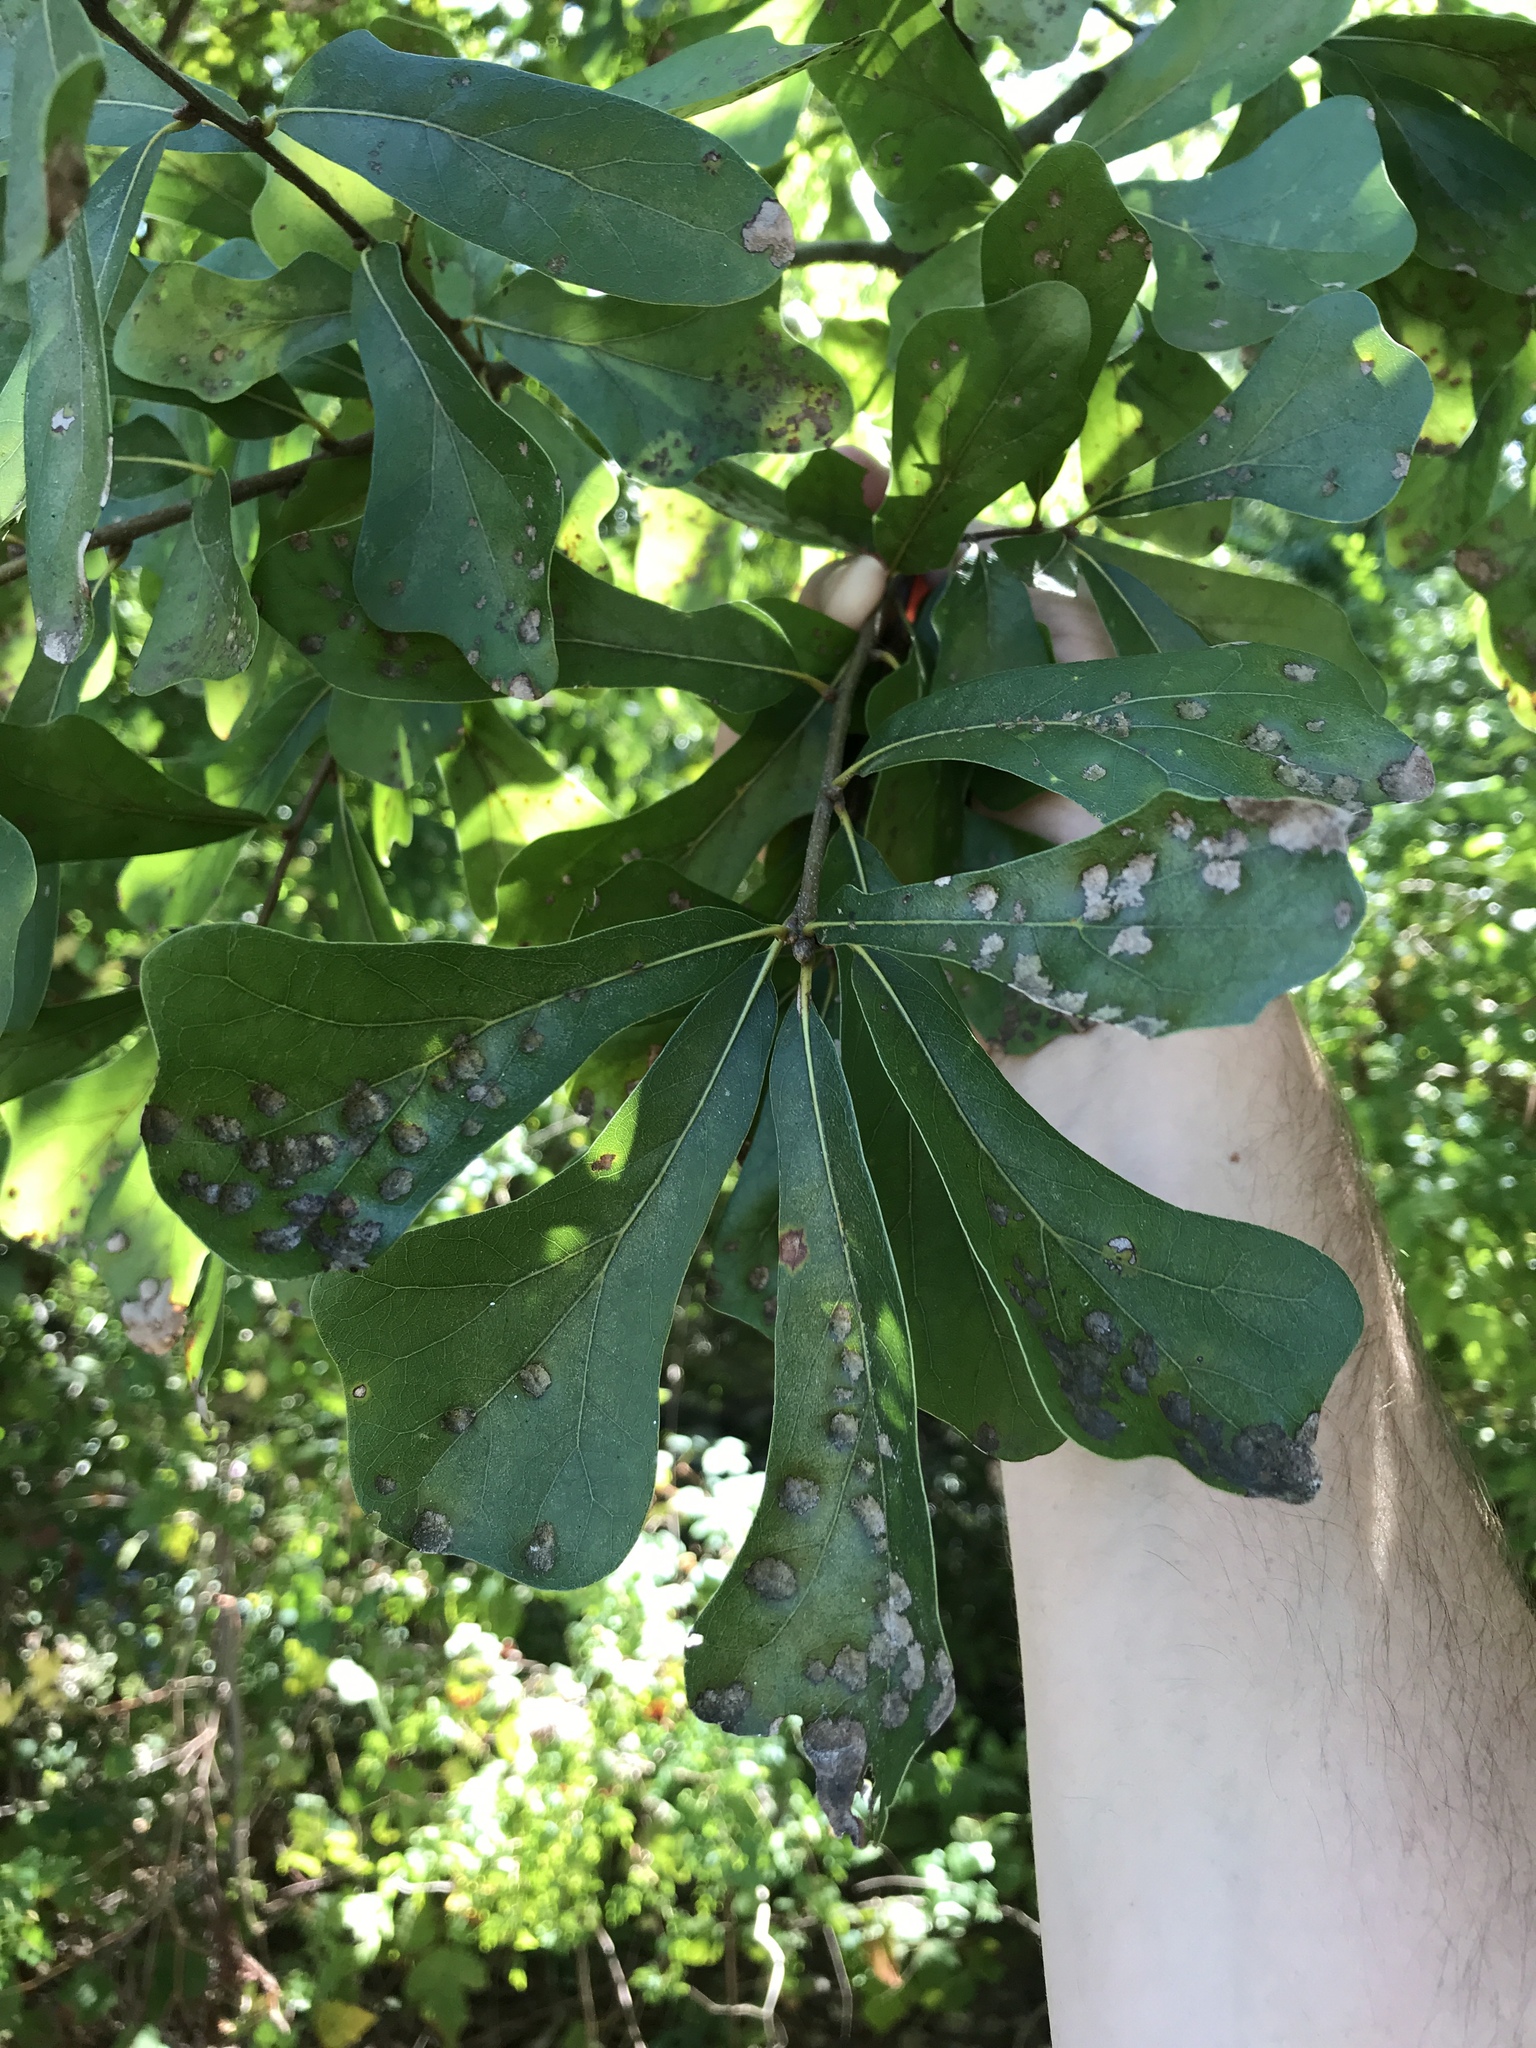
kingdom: Plantae
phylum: Tracheophyta
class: Magnoliopsida
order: Fagales
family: Fagaceae
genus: Quercus
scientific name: Quercus nigra
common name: Water oak
